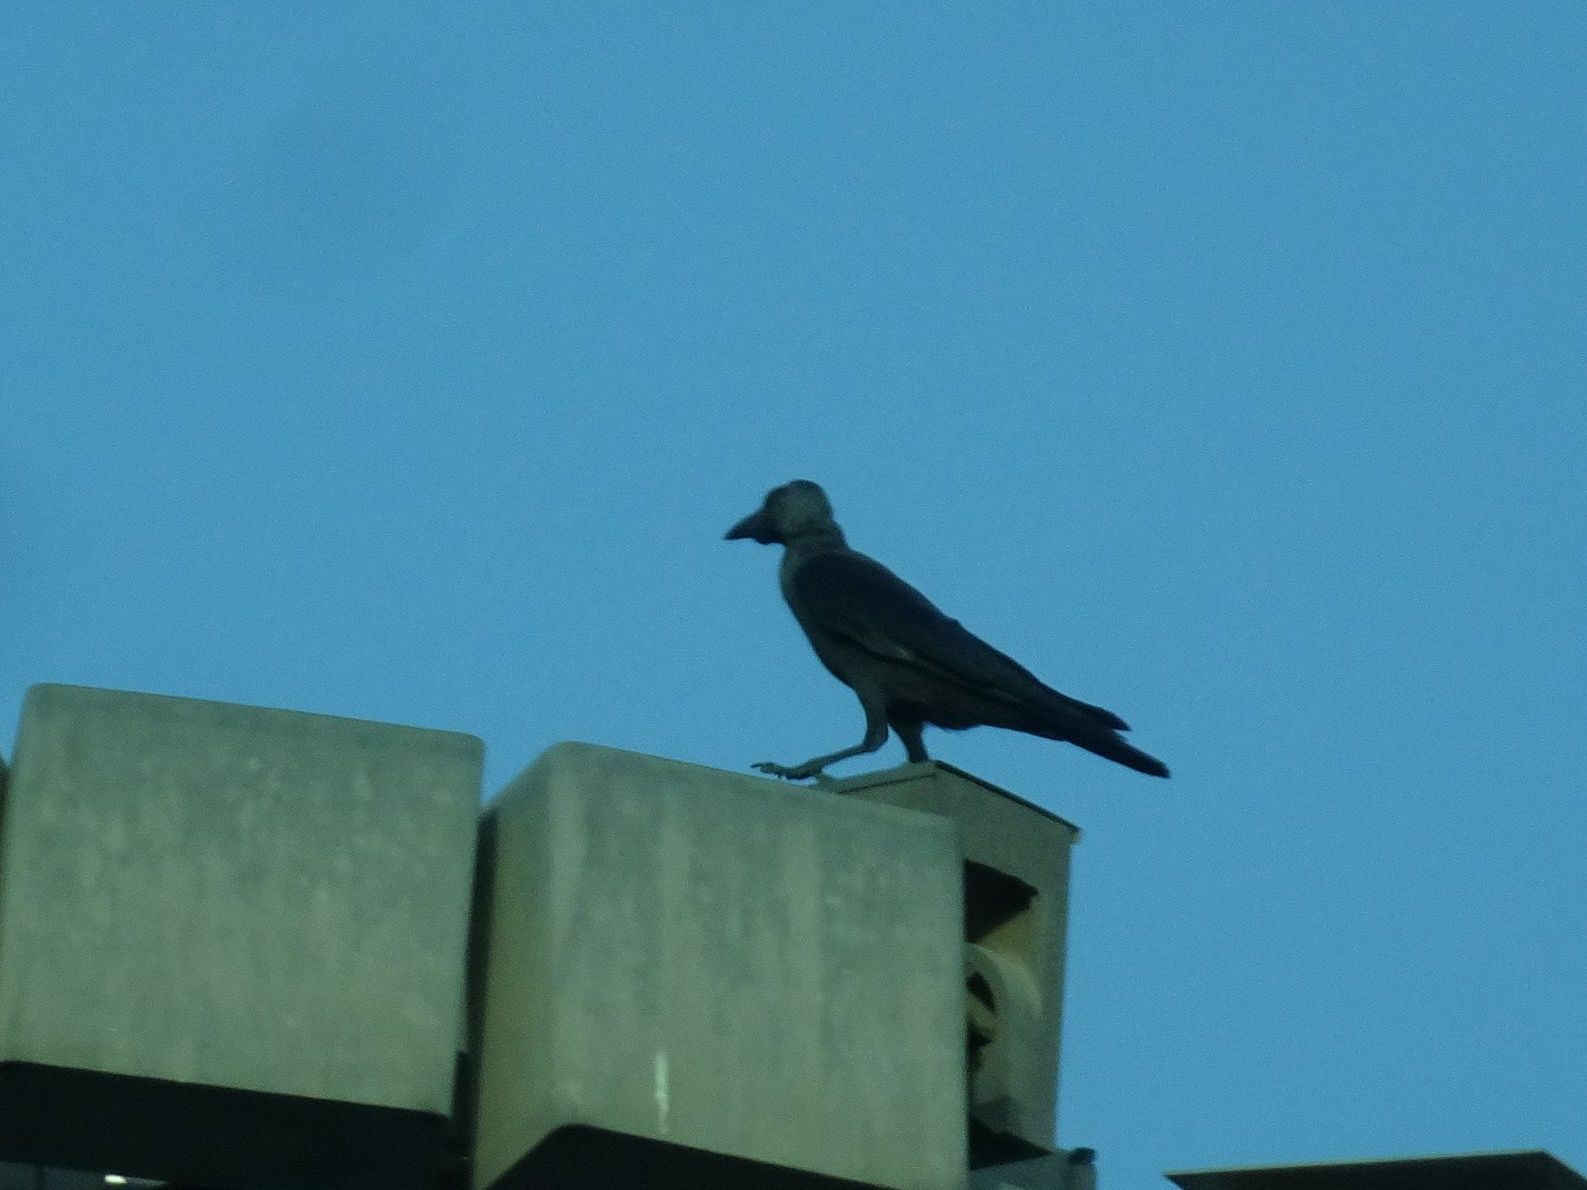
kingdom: Animalia
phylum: Chordata
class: Aves
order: Passeriformes
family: Corvidae
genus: Corvus
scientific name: Corvus splendens
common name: House crow
